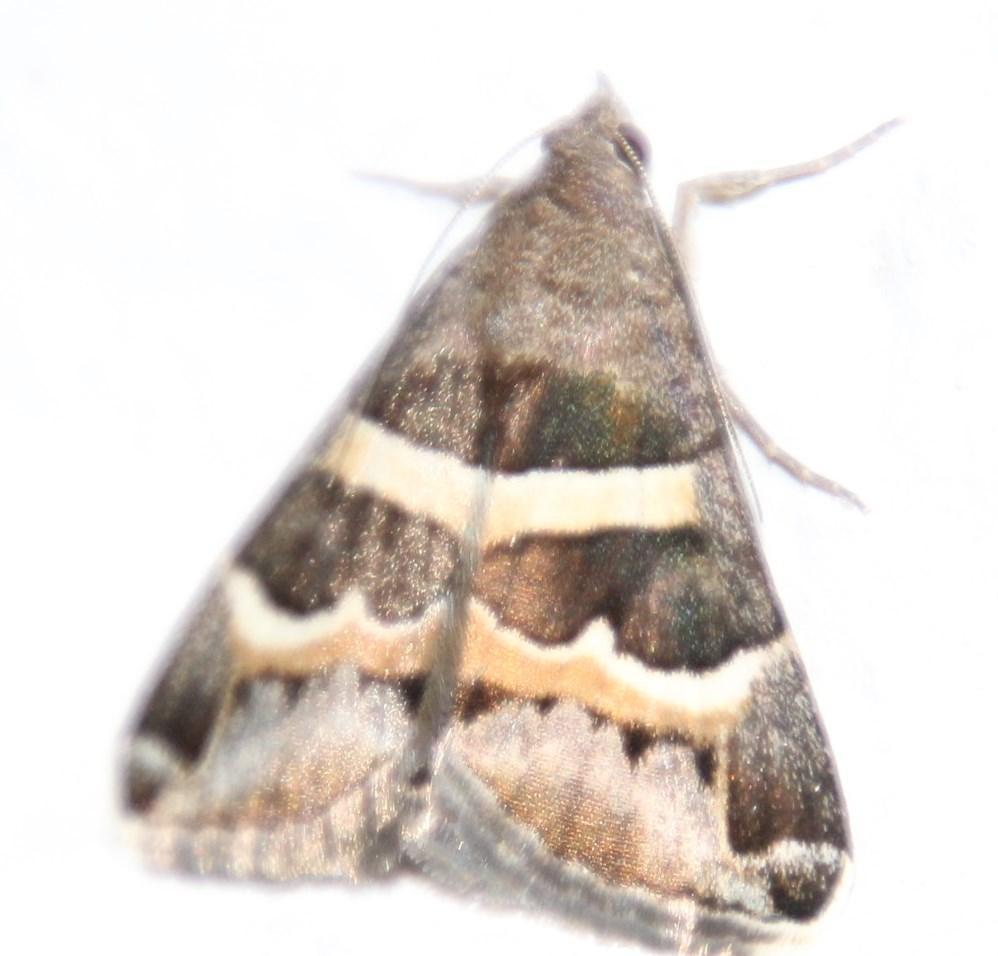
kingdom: Animalia
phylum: Arthropoda
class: Insecta
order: Lepidoptera
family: Erebidae
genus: Grammodes
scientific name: Grammodes stolida
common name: Geometrician
